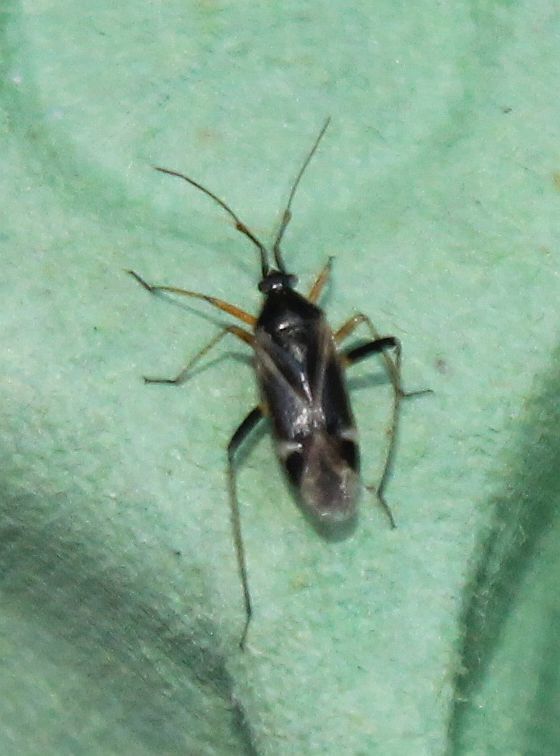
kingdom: Animalia
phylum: Arthropoda
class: Insecta
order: Hemiptera
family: Miridae
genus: Harpocera
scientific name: Harpocera thoracica
